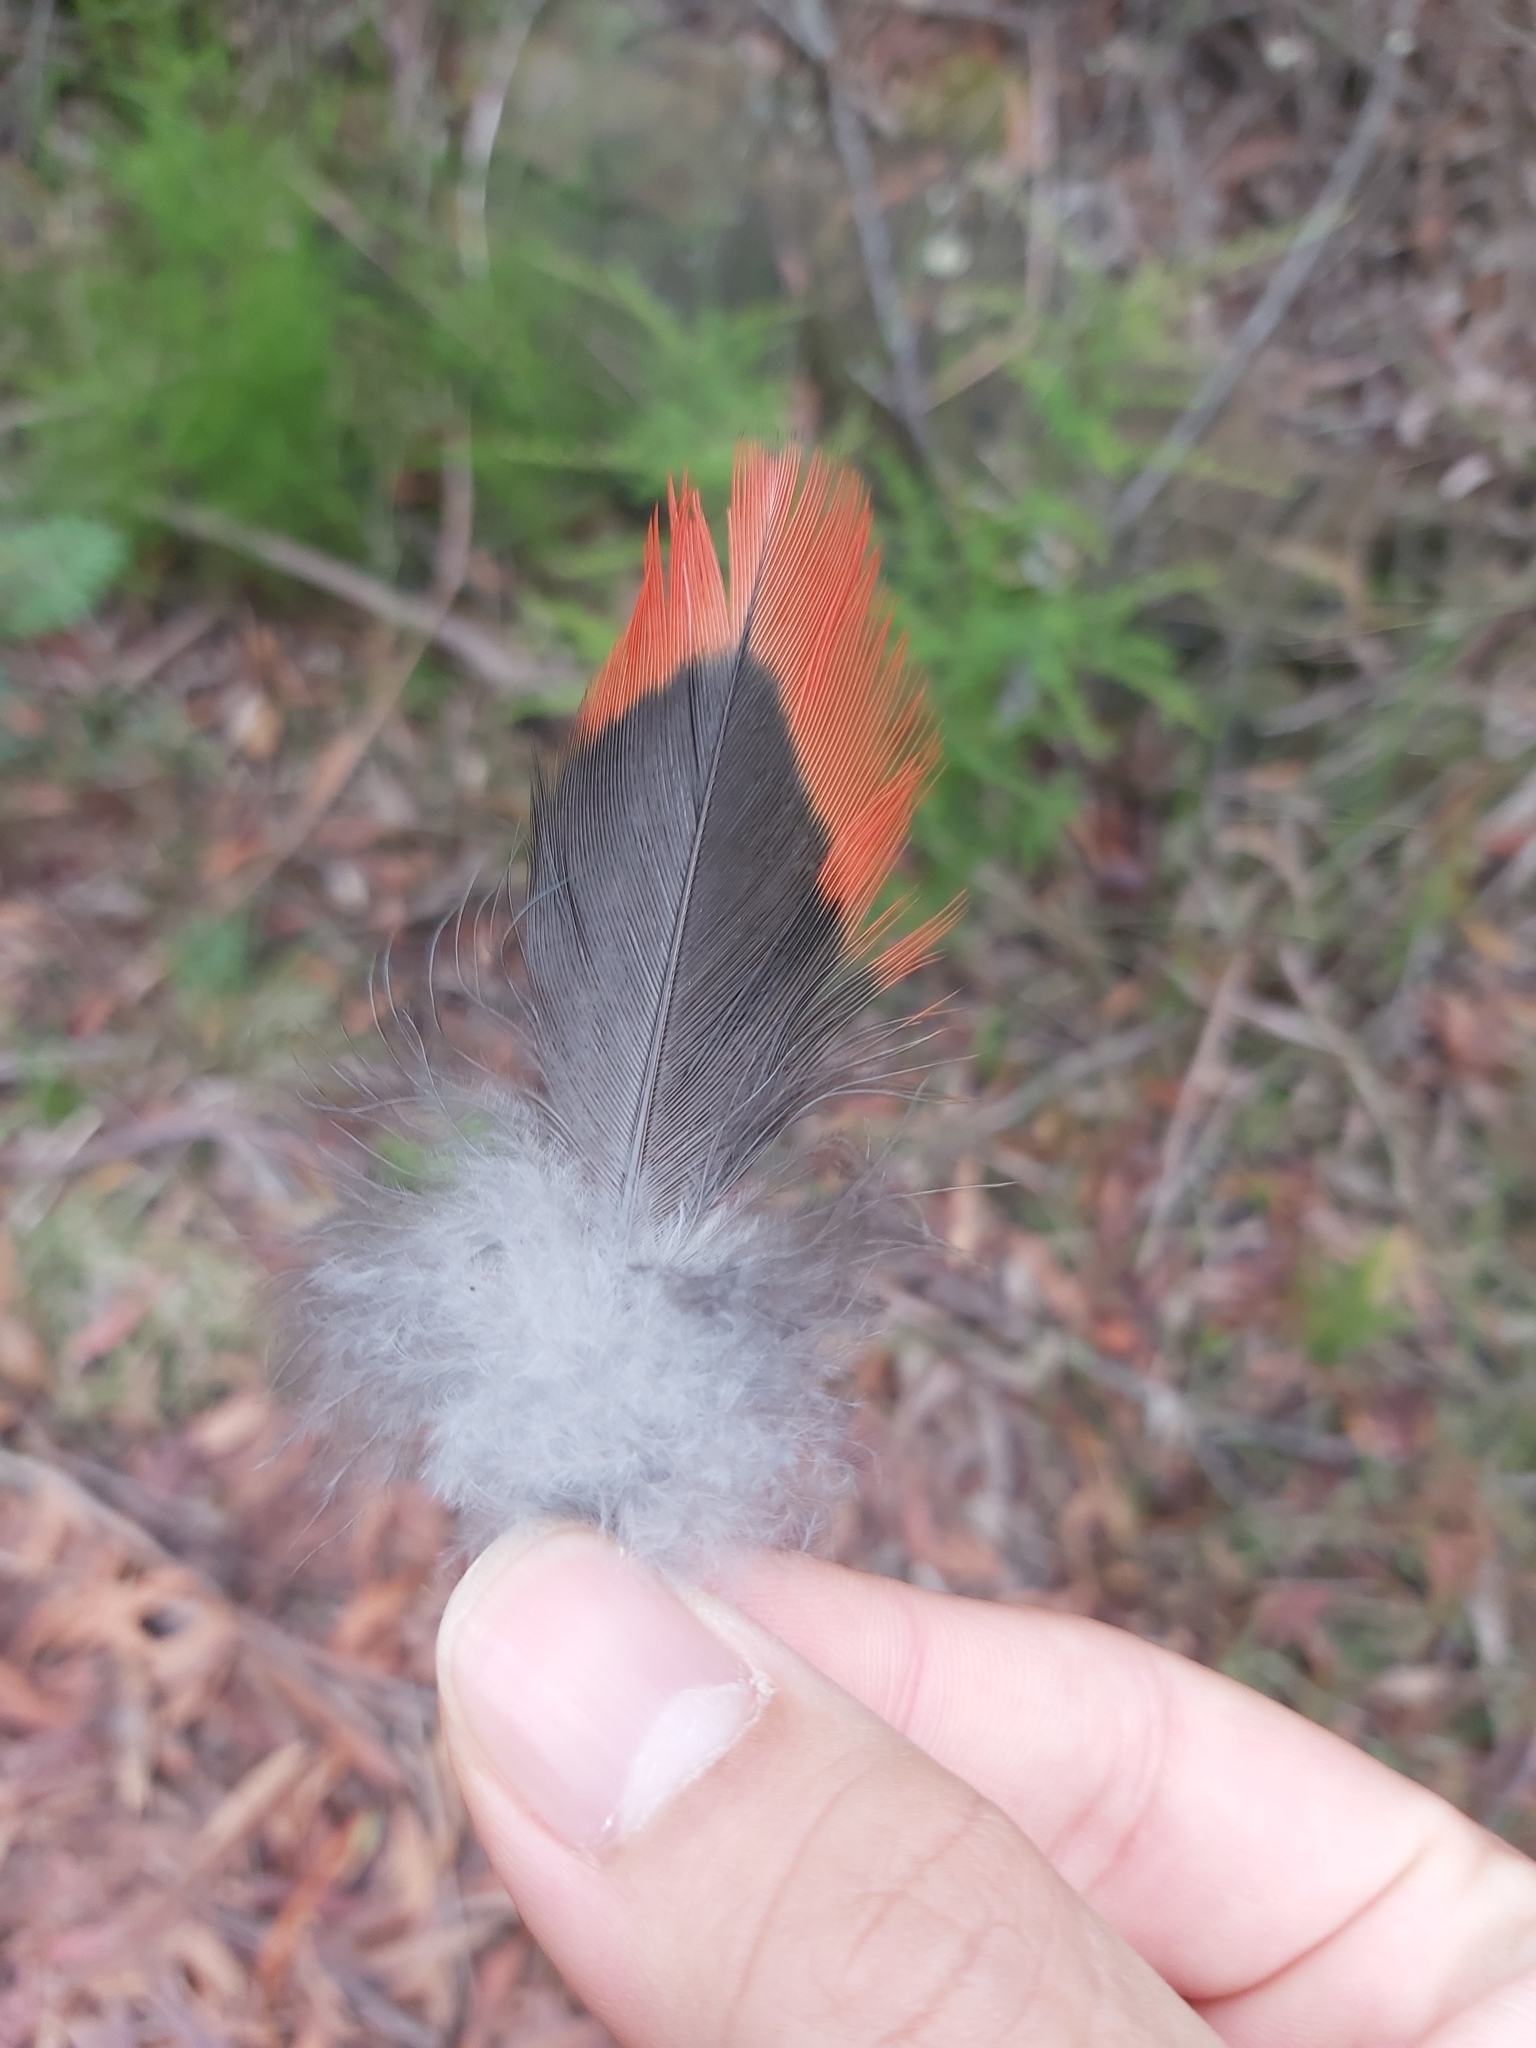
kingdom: Animalia
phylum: Chordata
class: Aves
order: Psittaciformes
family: Psittacidae
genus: Alisterus
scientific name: Alisterus scapularis
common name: Australian king parrot
